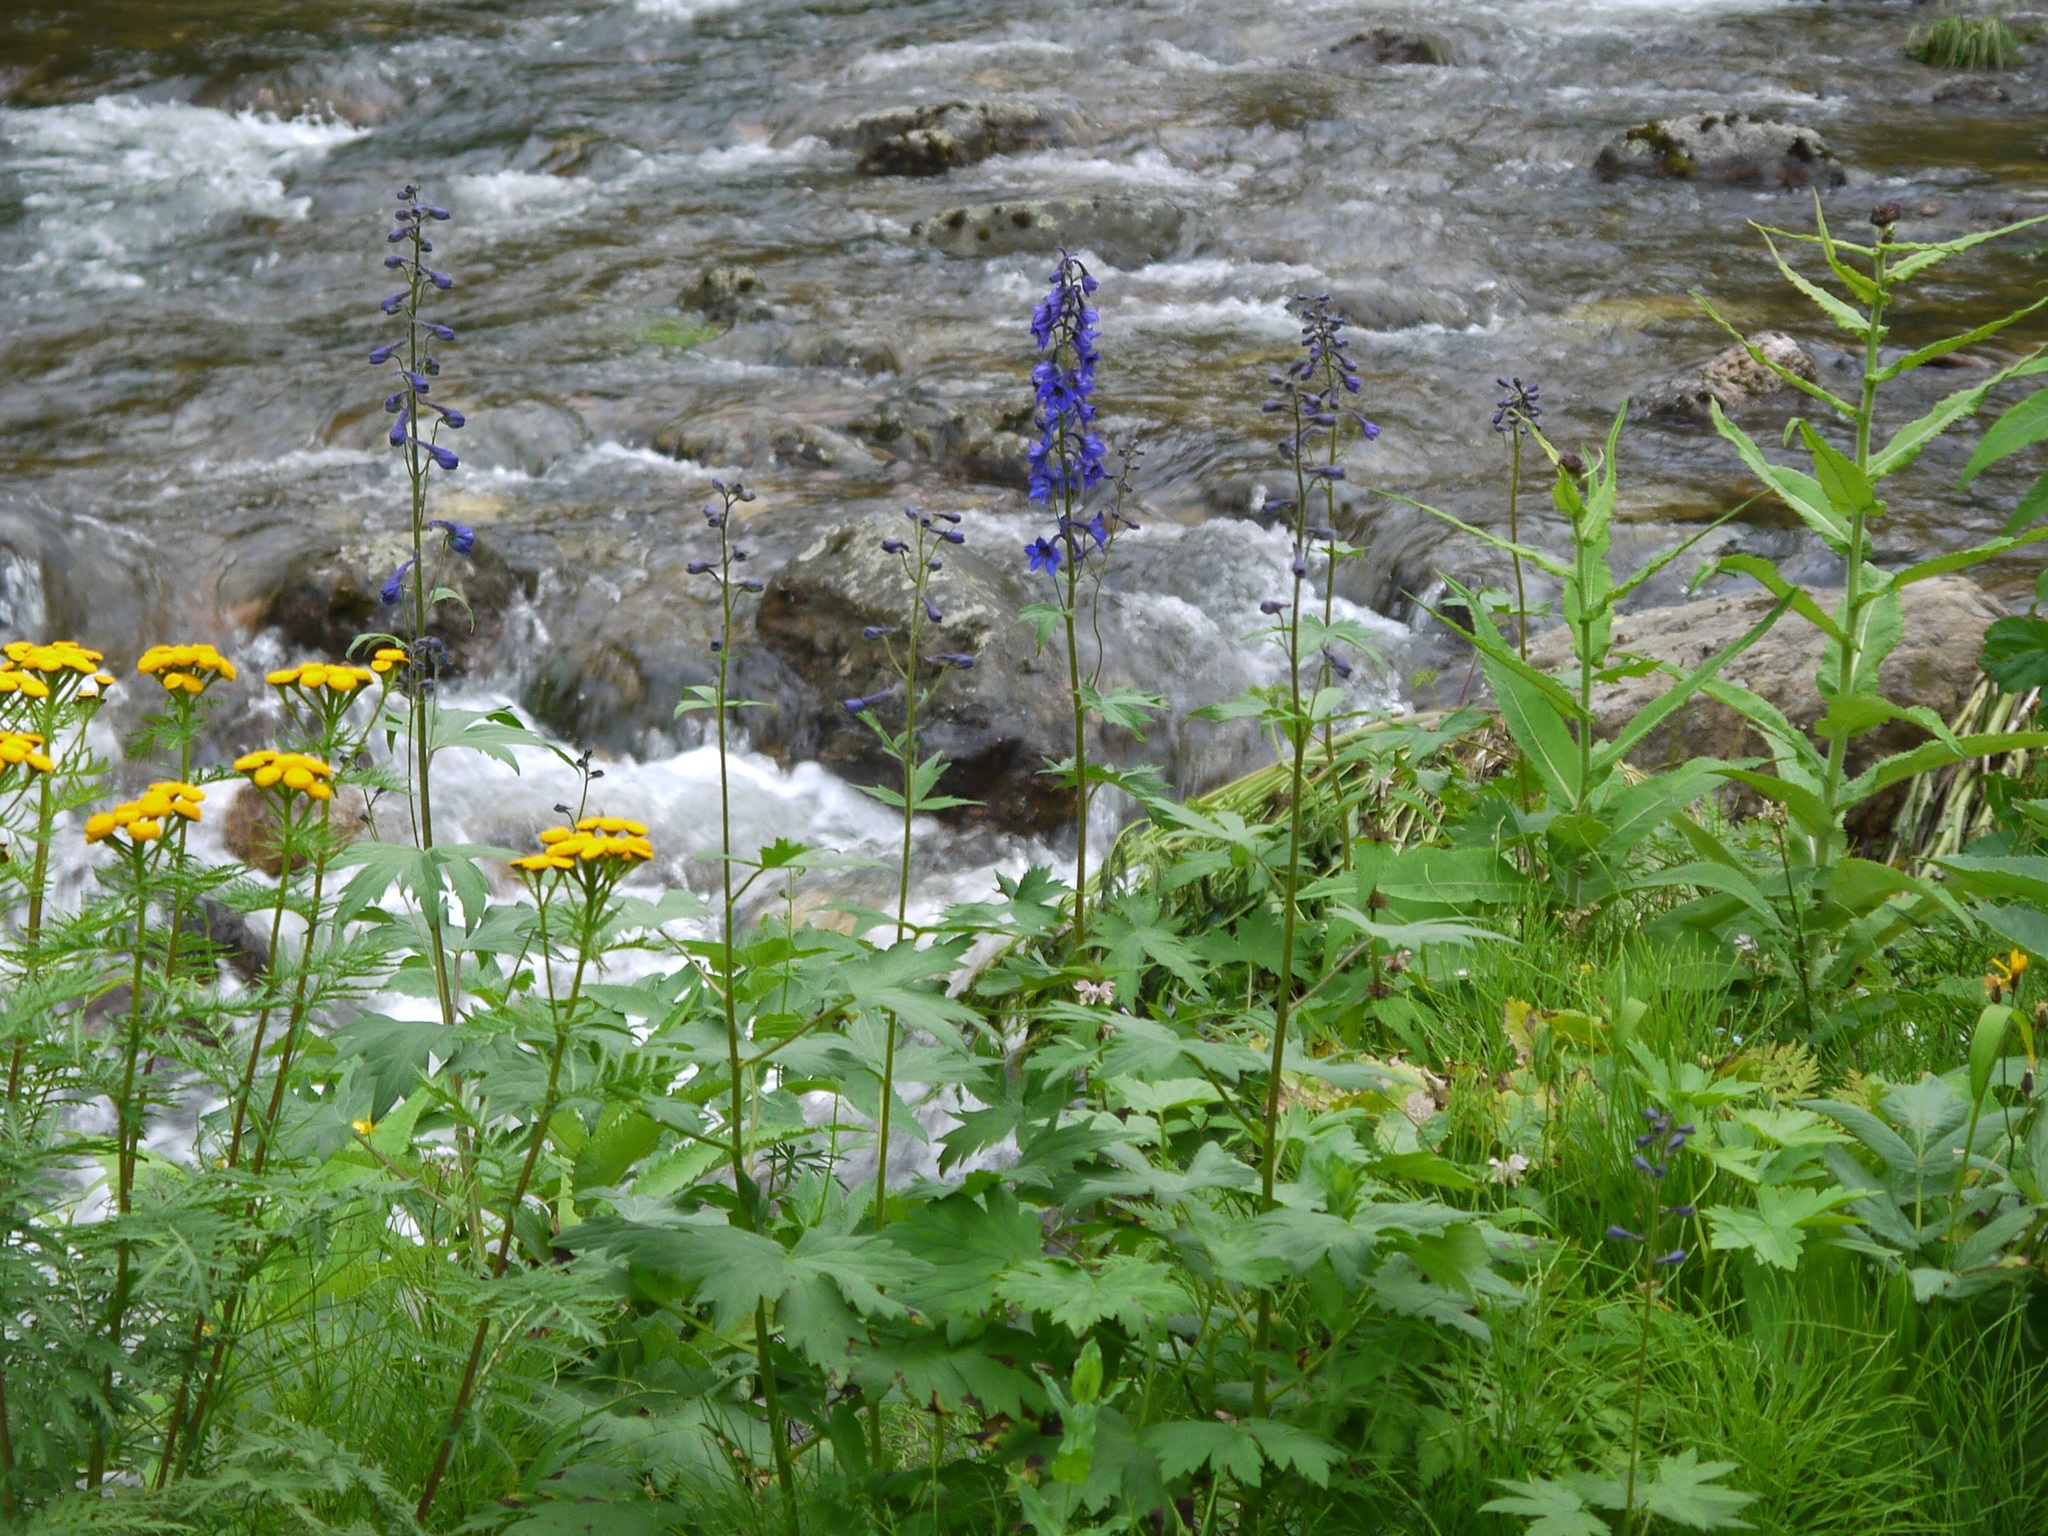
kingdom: Plantae
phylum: Tracheophyta
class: Magnoliopsida
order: Ranunculales
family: Ranunculaceae
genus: Delphinium
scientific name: Delphinium elatum
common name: Candle larkspur
